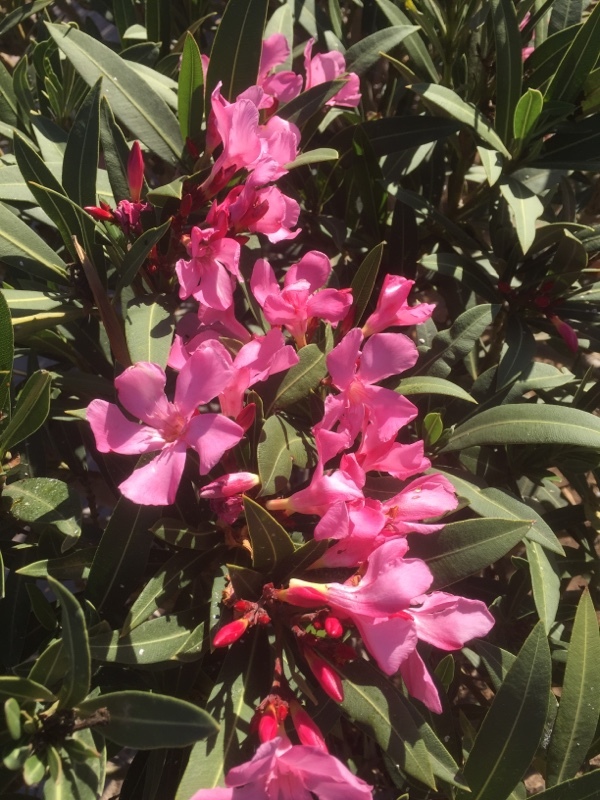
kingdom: Plantae
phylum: Tracheophyta
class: Magnoliopsida
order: Gentianales
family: Apocynaceae
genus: Nerium
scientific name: Nerium oleander
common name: Oleander
